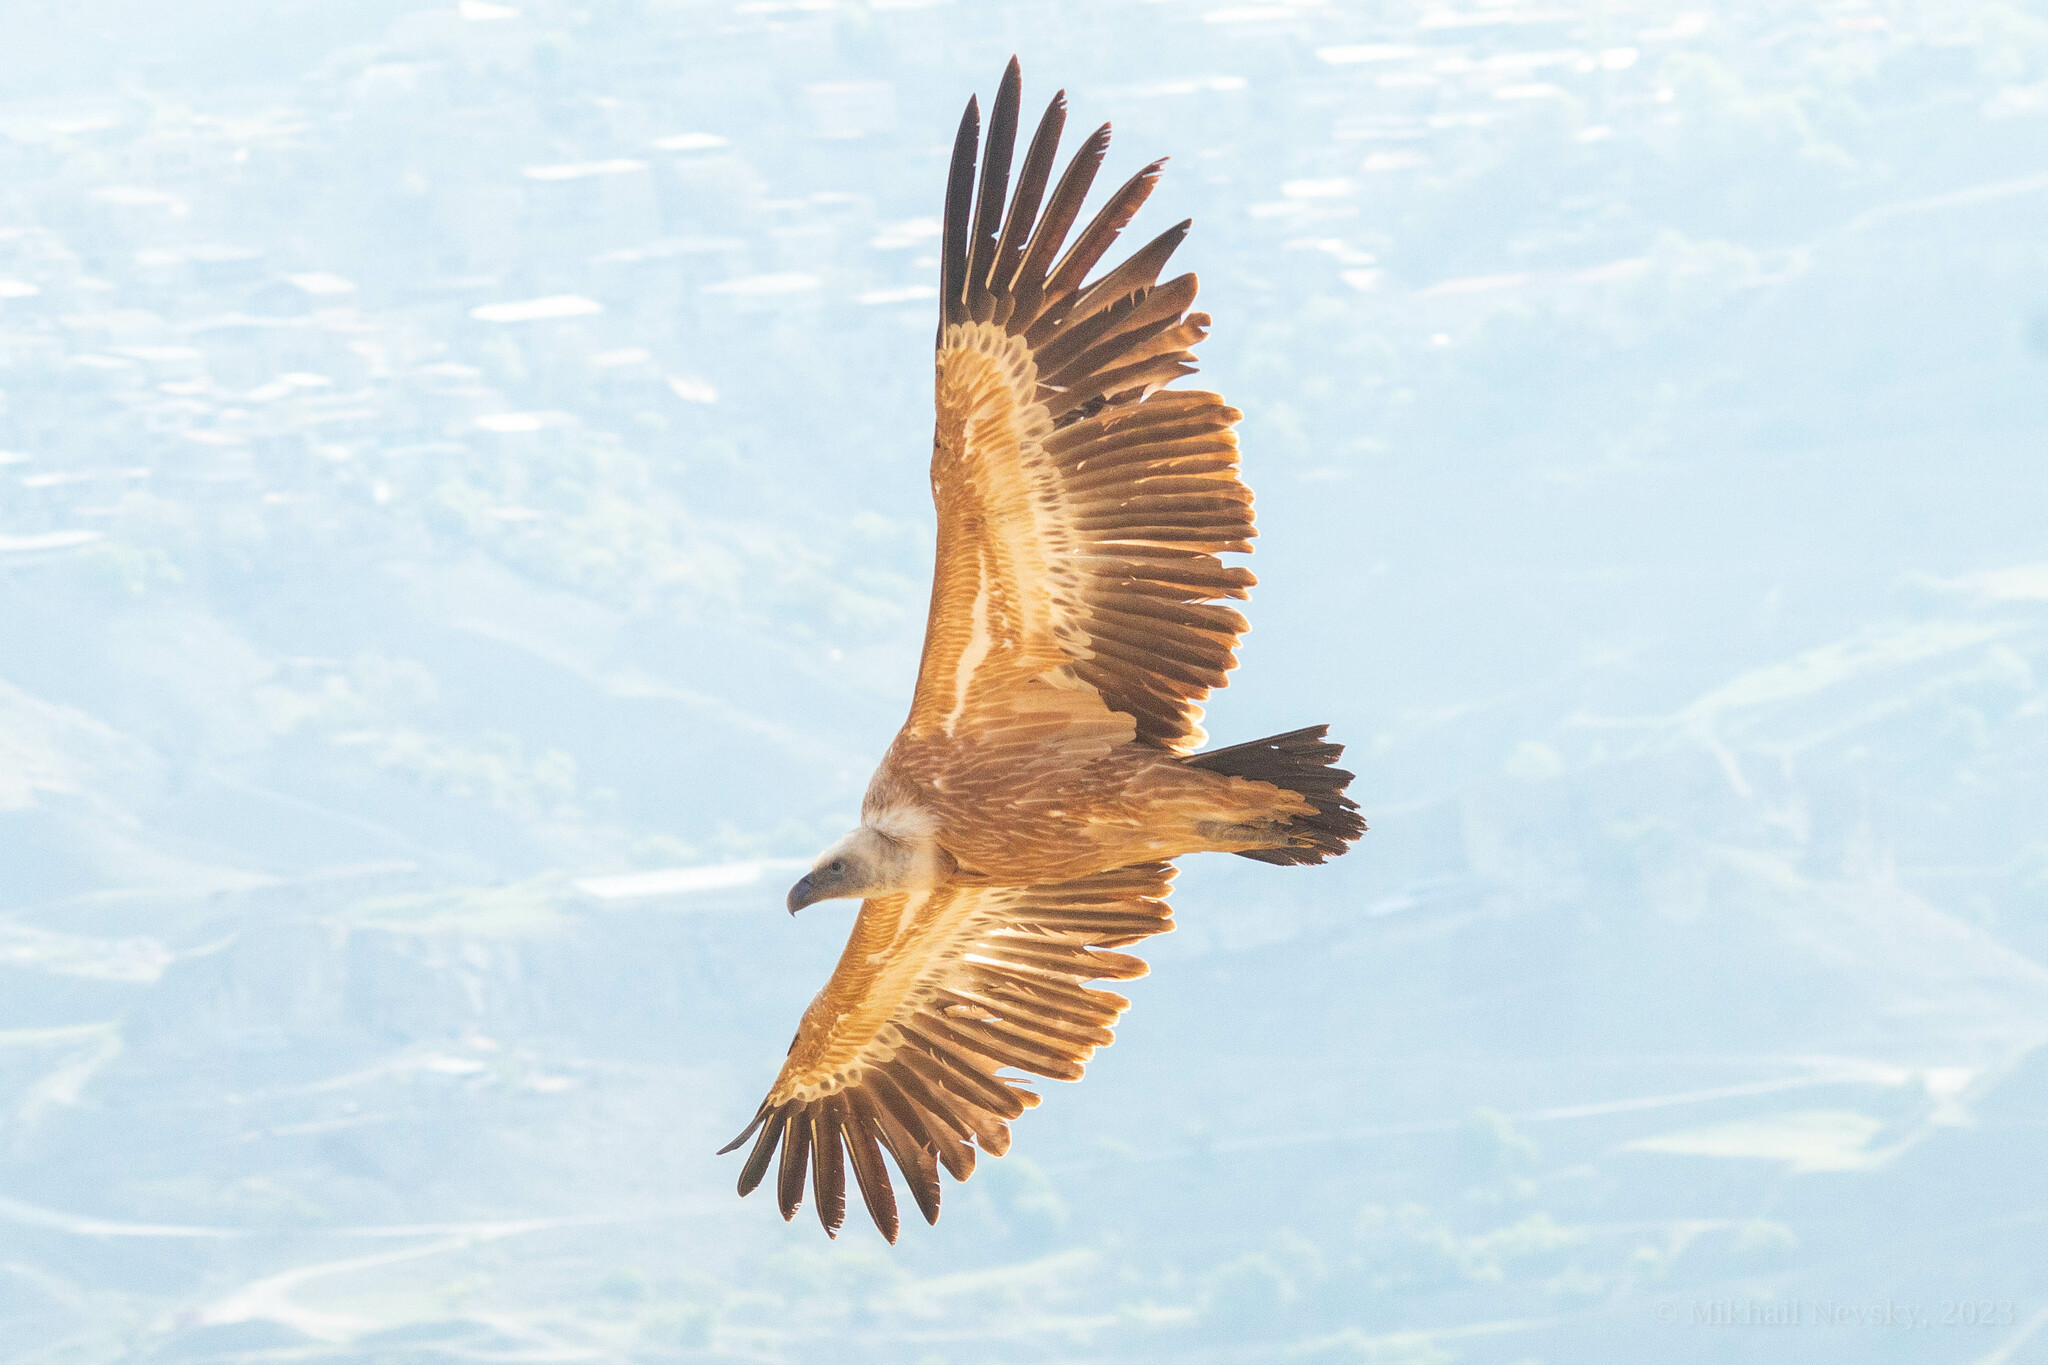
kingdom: Animalia
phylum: Chordata
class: Aves
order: Accipitriformes
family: Accipitridae
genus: Gyps
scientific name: Gyps fulvus
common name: Griffon vulture
